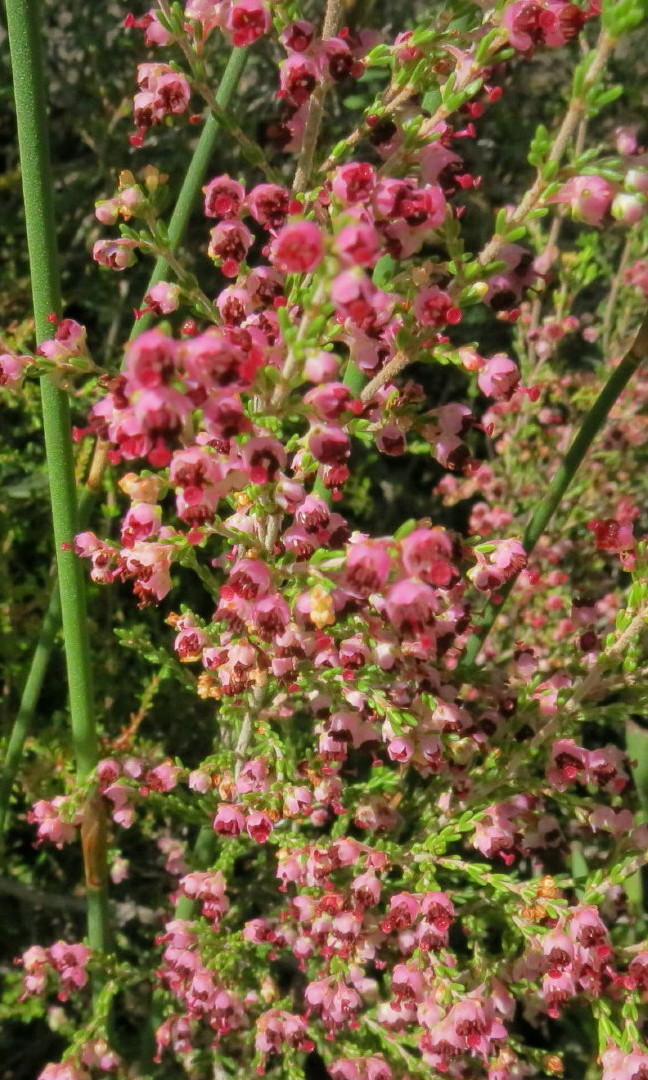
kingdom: Plantae
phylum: Tracheophyta
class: Magnoliopsida
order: Ericales
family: Ericaceae
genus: Erica
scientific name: Erica peltata
